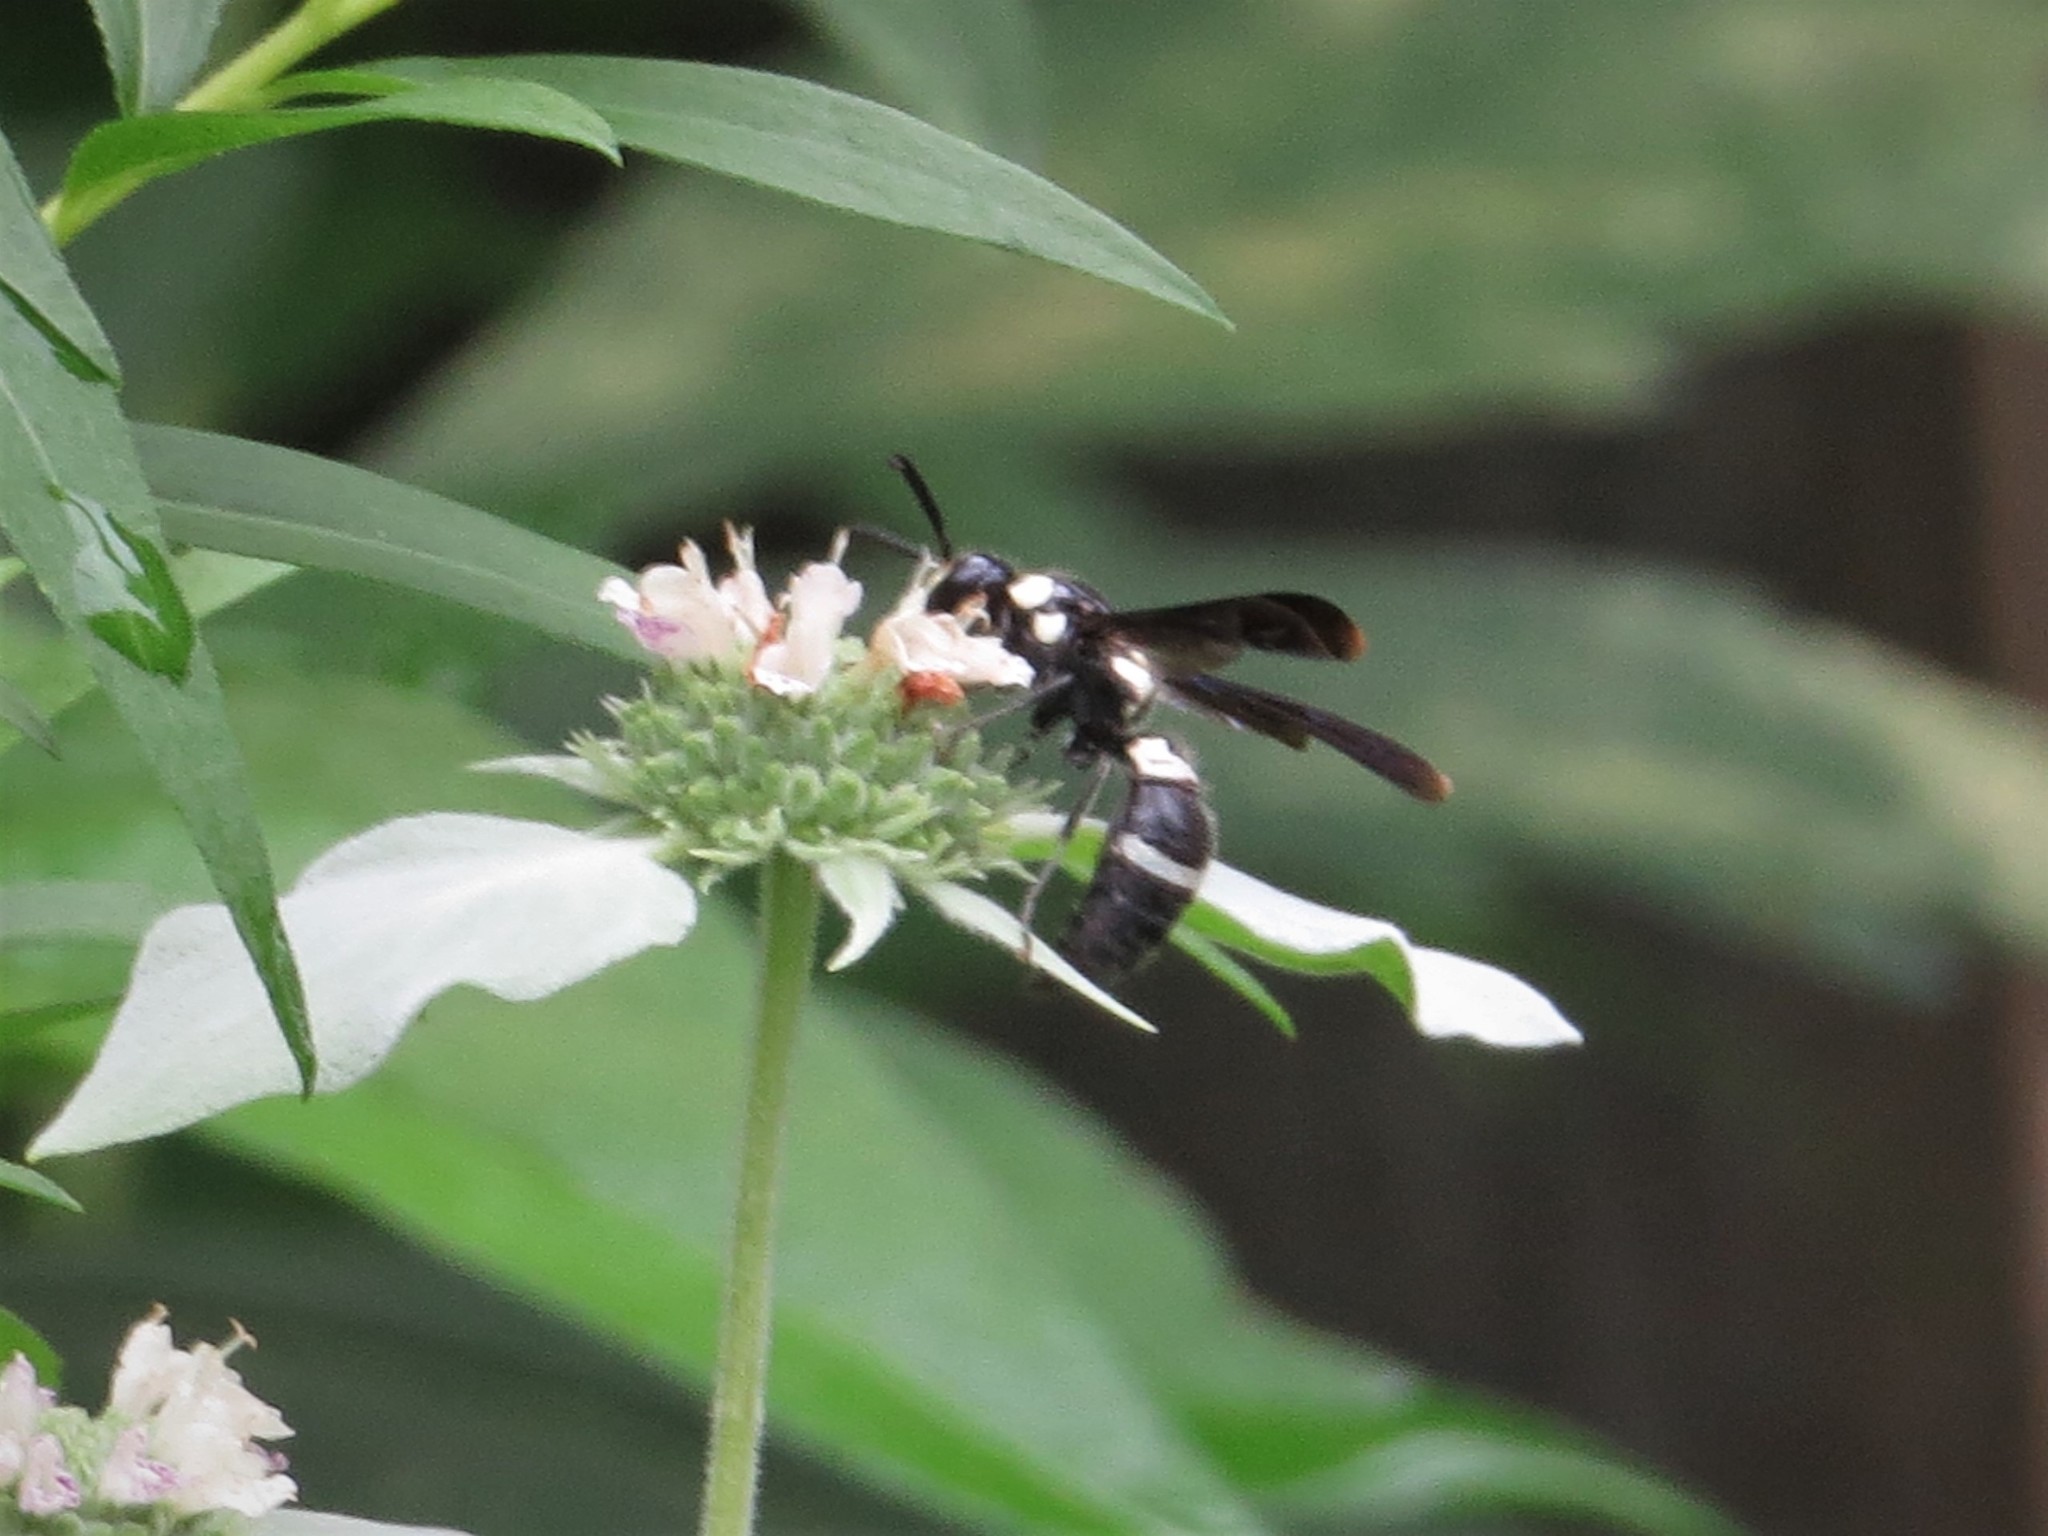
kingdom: Animalia
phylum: Arthropoda
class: Insecta
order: Hymenoptera
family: Eumenidae
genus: Pseudodynerus
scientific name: Pseudodynerus quadrisectus
